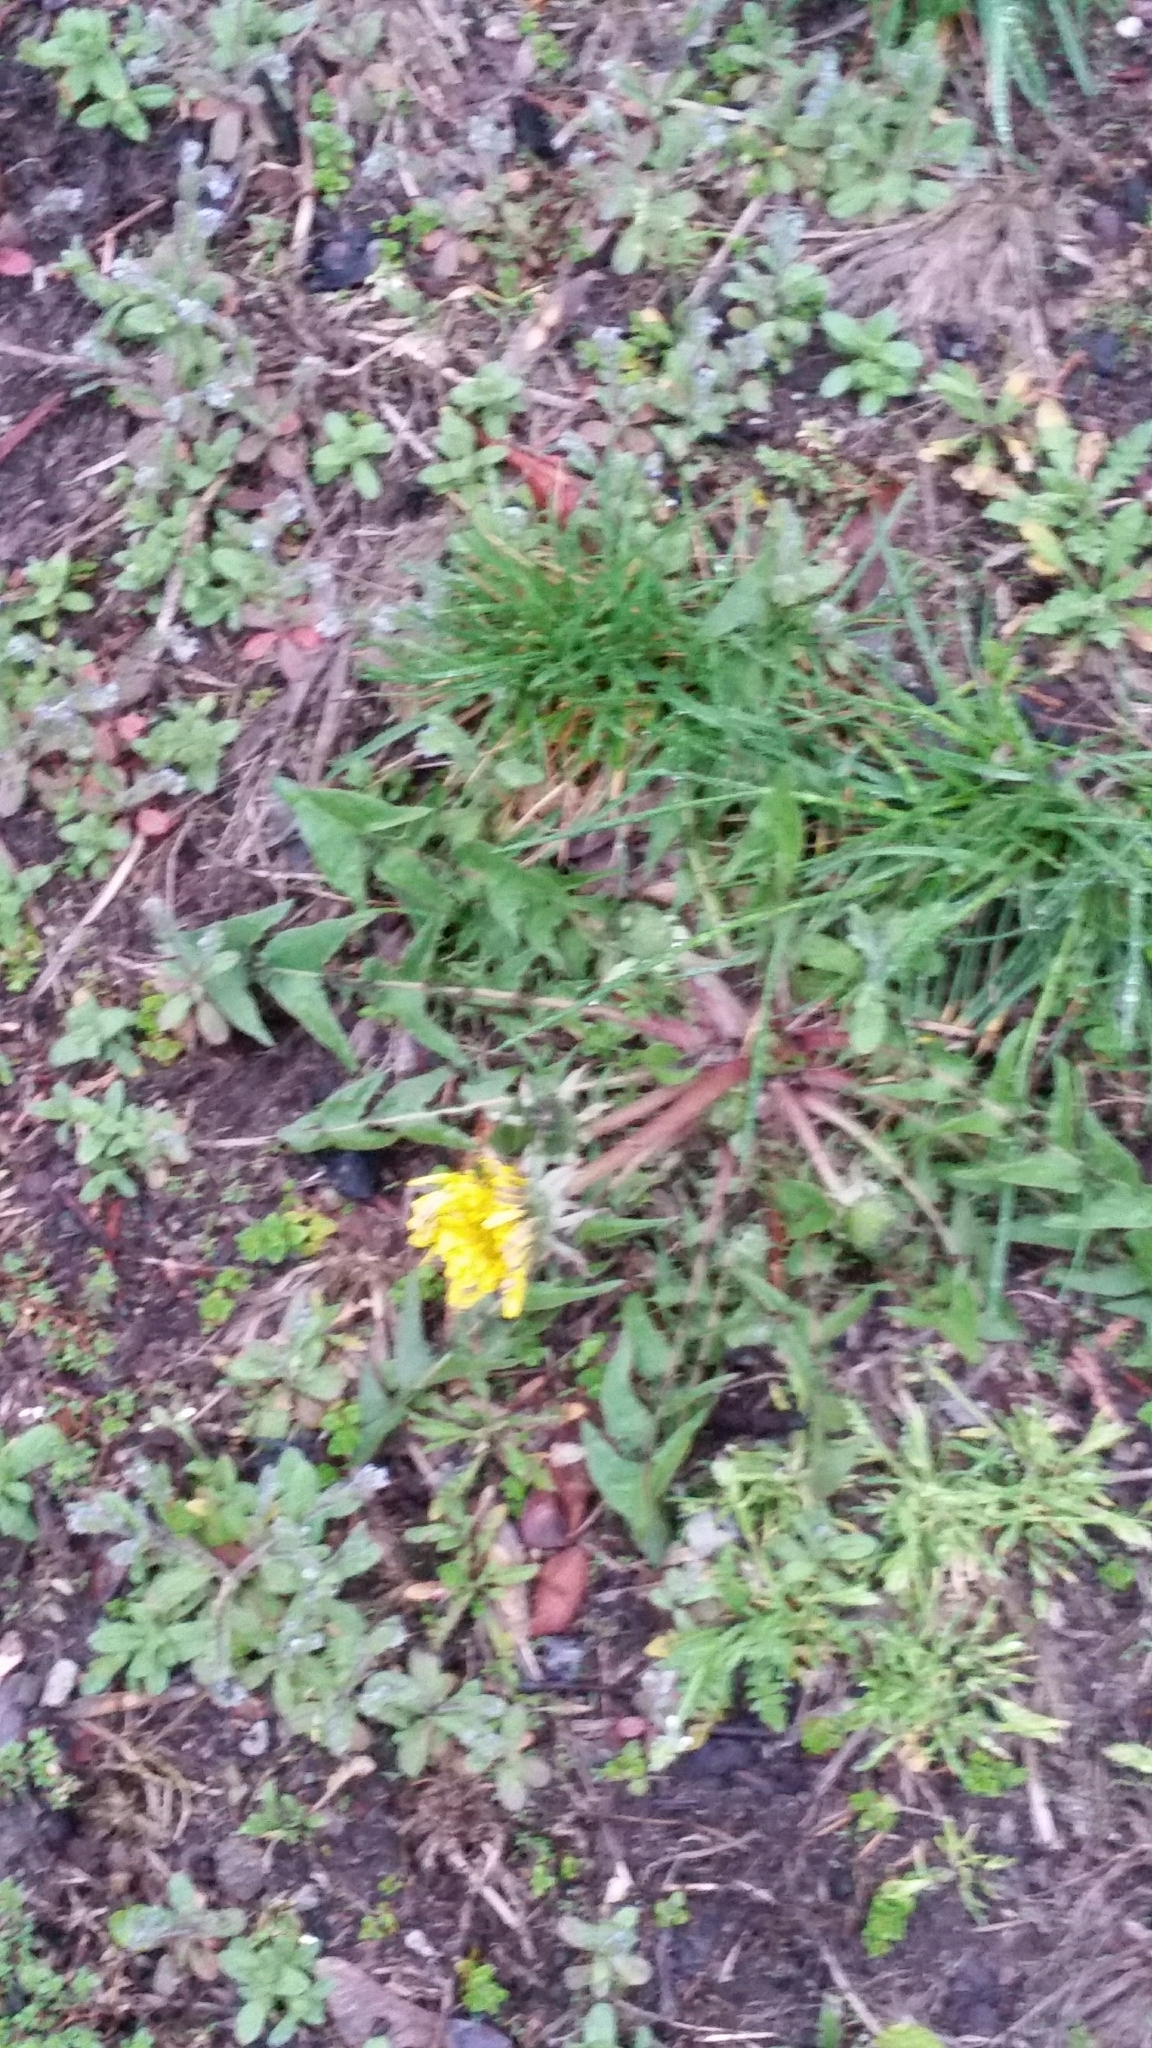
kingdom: Plantae
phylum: Tracheophyta
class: Magnoliopsida
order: Asterales
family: Asteraceae
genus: Taraxacum
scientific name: Taraxacum officinale
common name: Common dandelion
